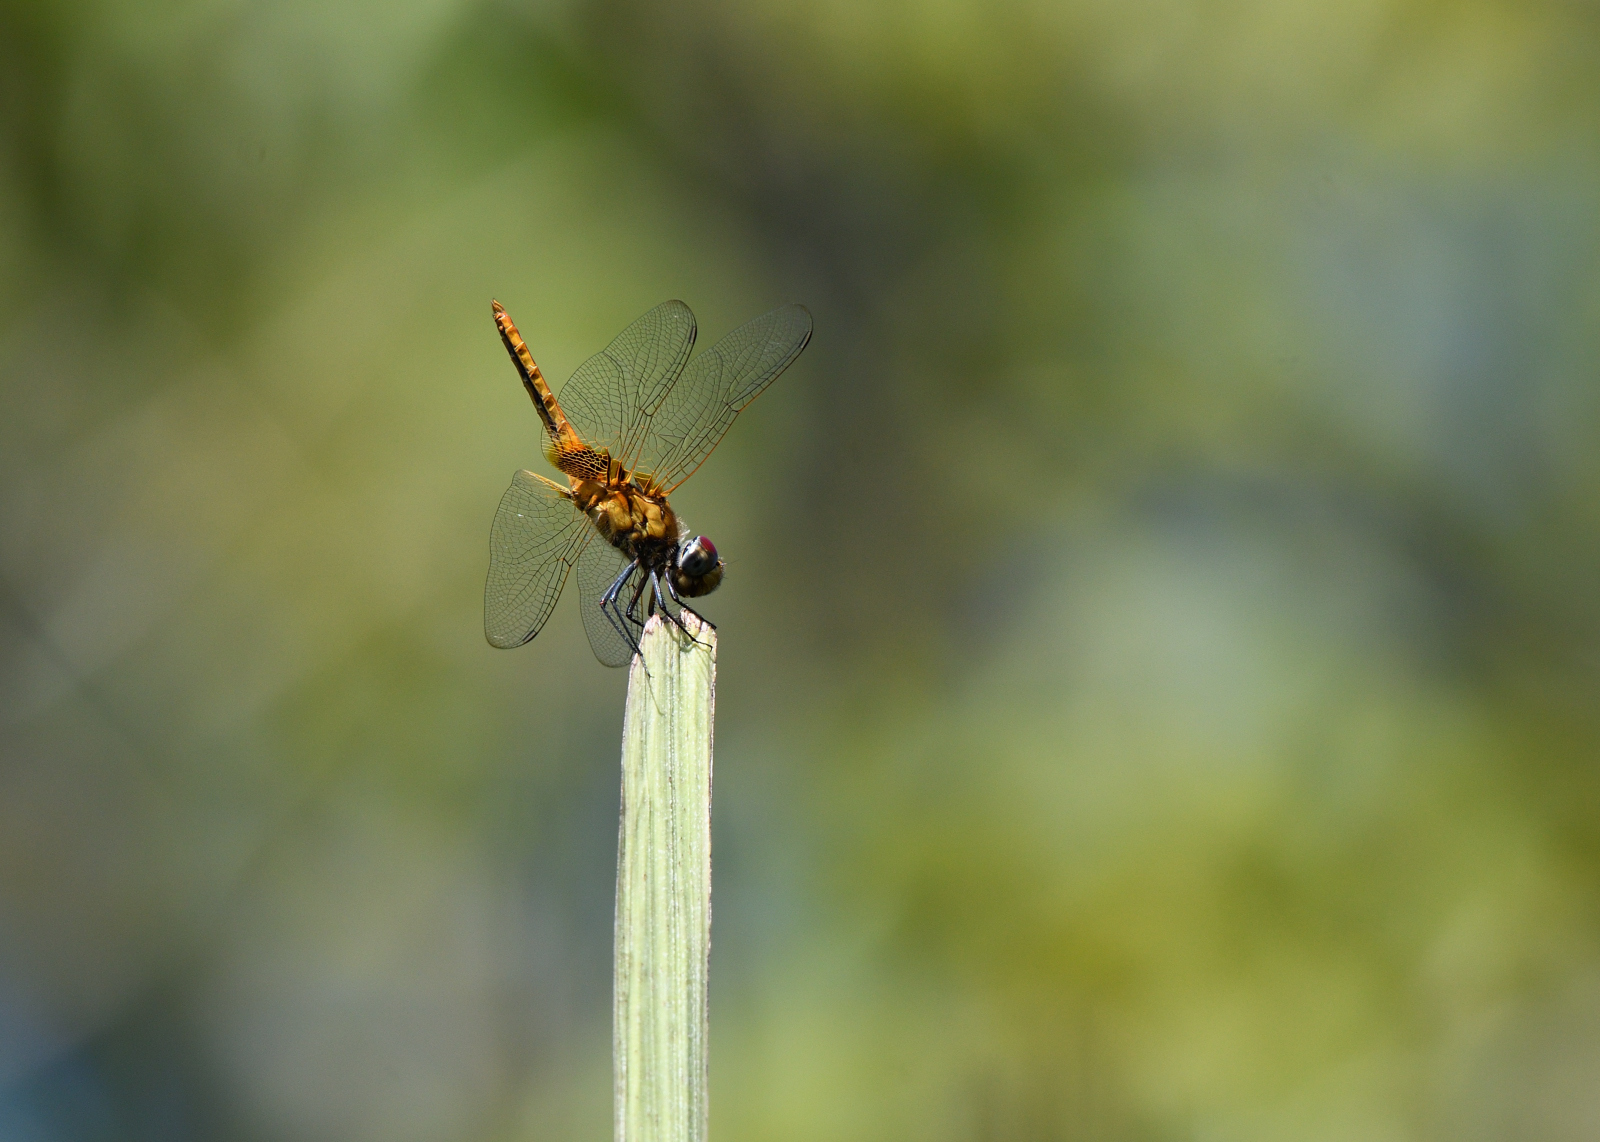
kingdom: Animalia
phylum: Arthropoda
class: Insecta
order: Odonata
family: Libellulidae
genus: Urothemis
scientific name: Urothemis signata
